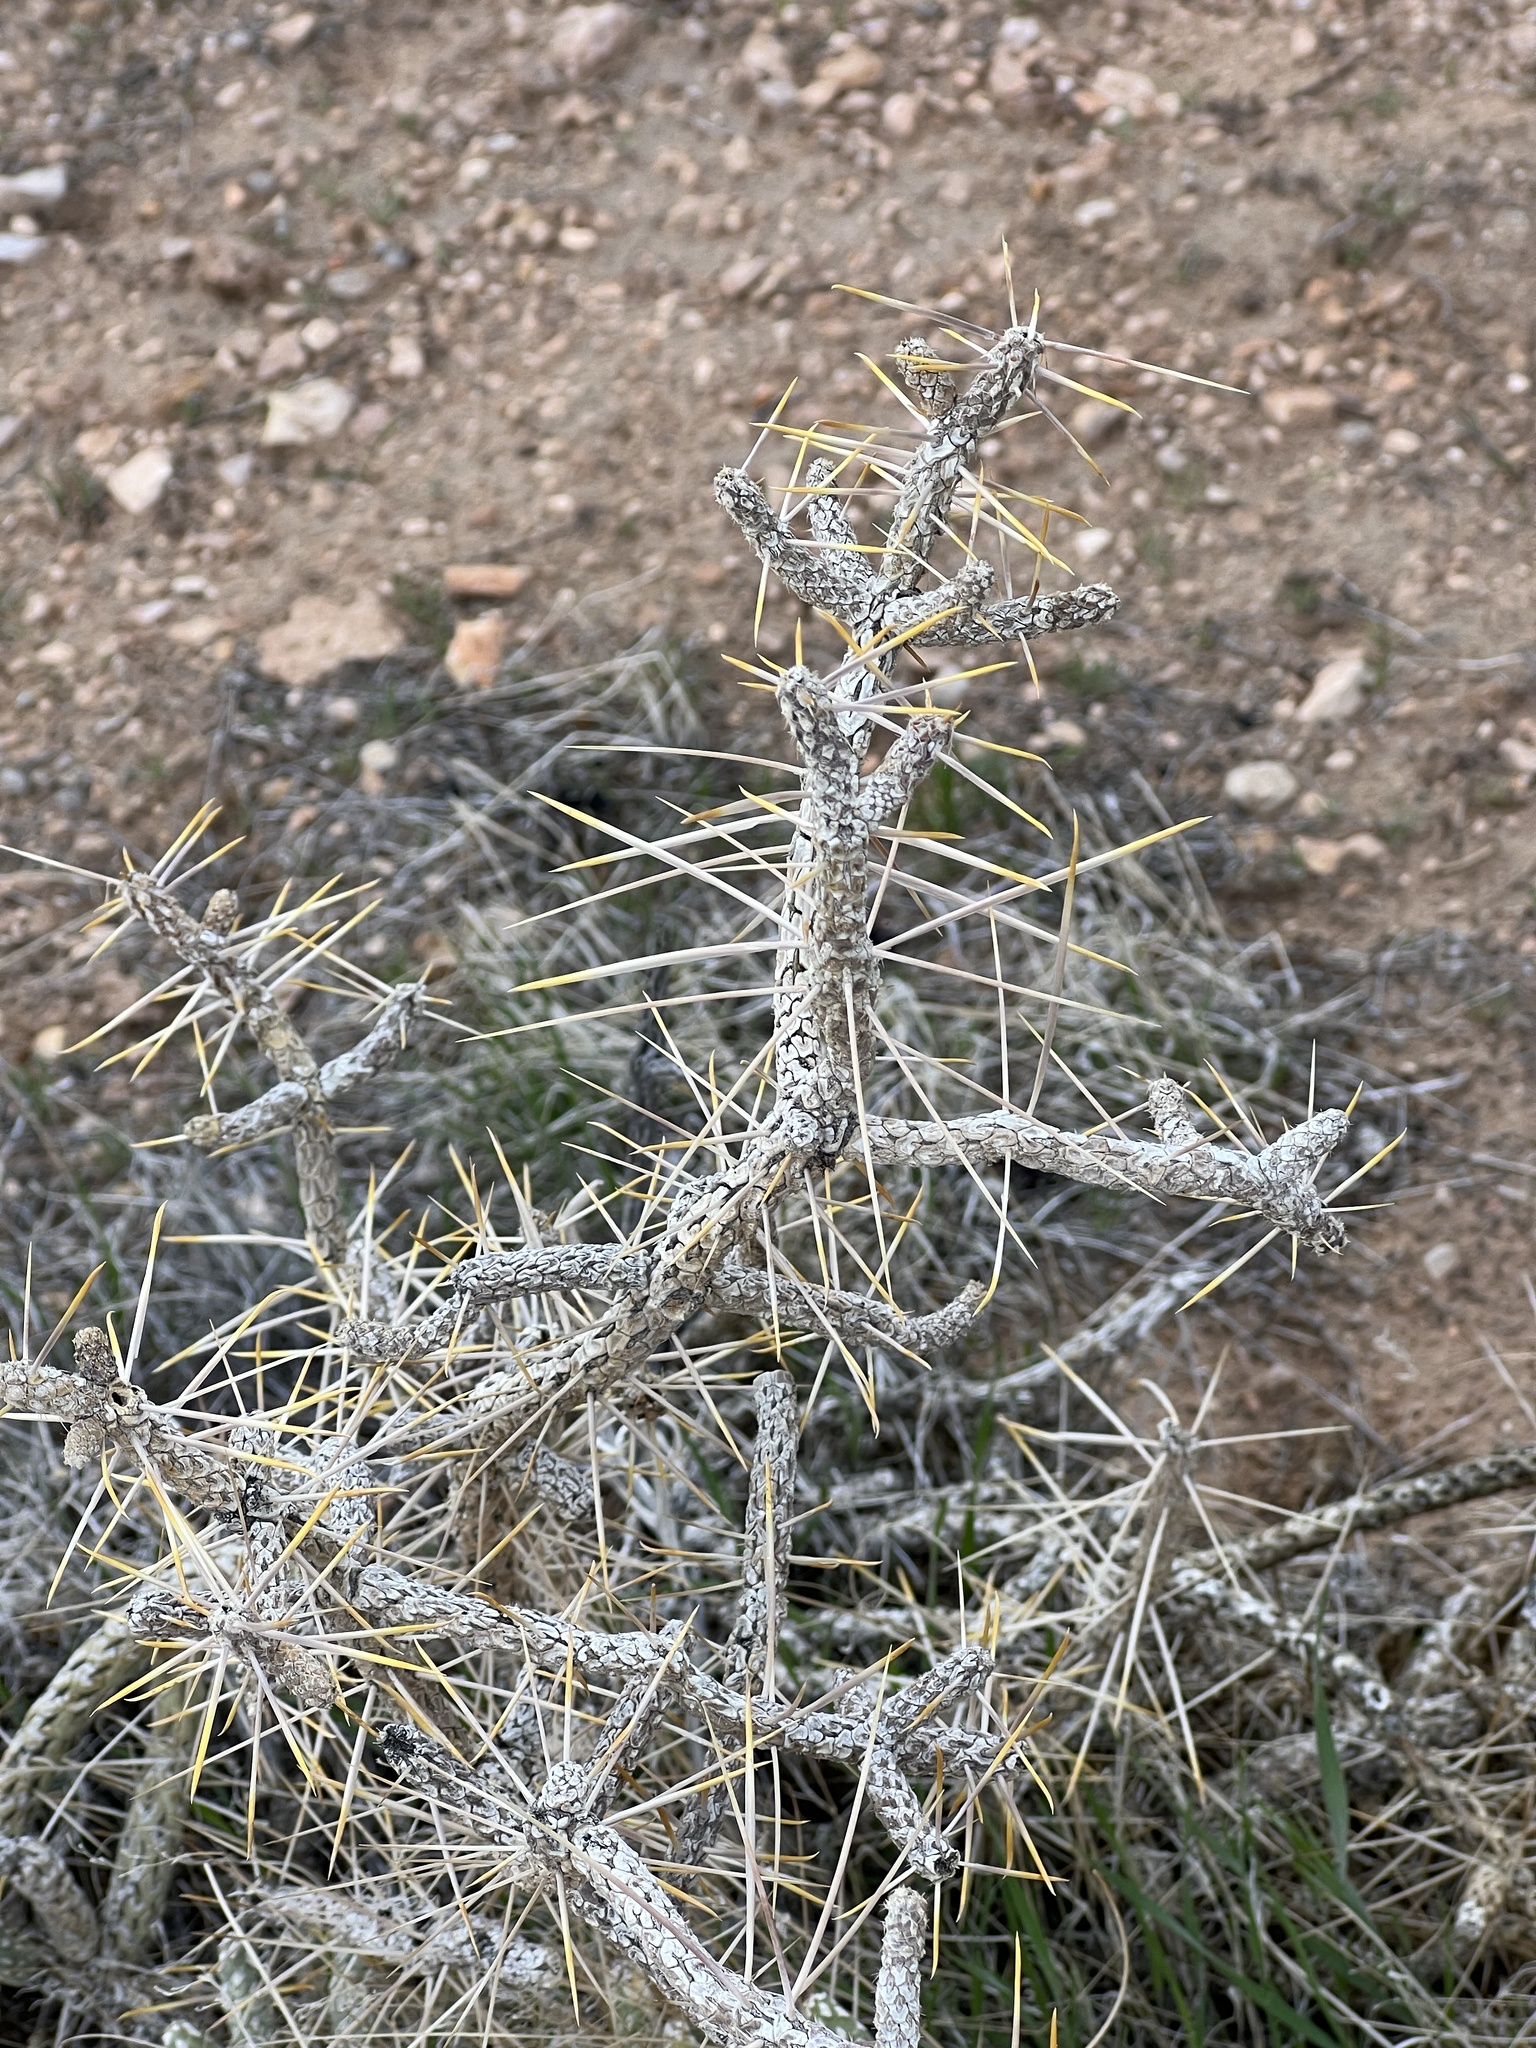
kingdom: Plantae
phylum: Tracheophyta
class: Magnoliopsida
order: Caryophyllales
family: Cactaceae
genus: Cylindropuntia
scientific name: Cylindropuntia ramosissima
